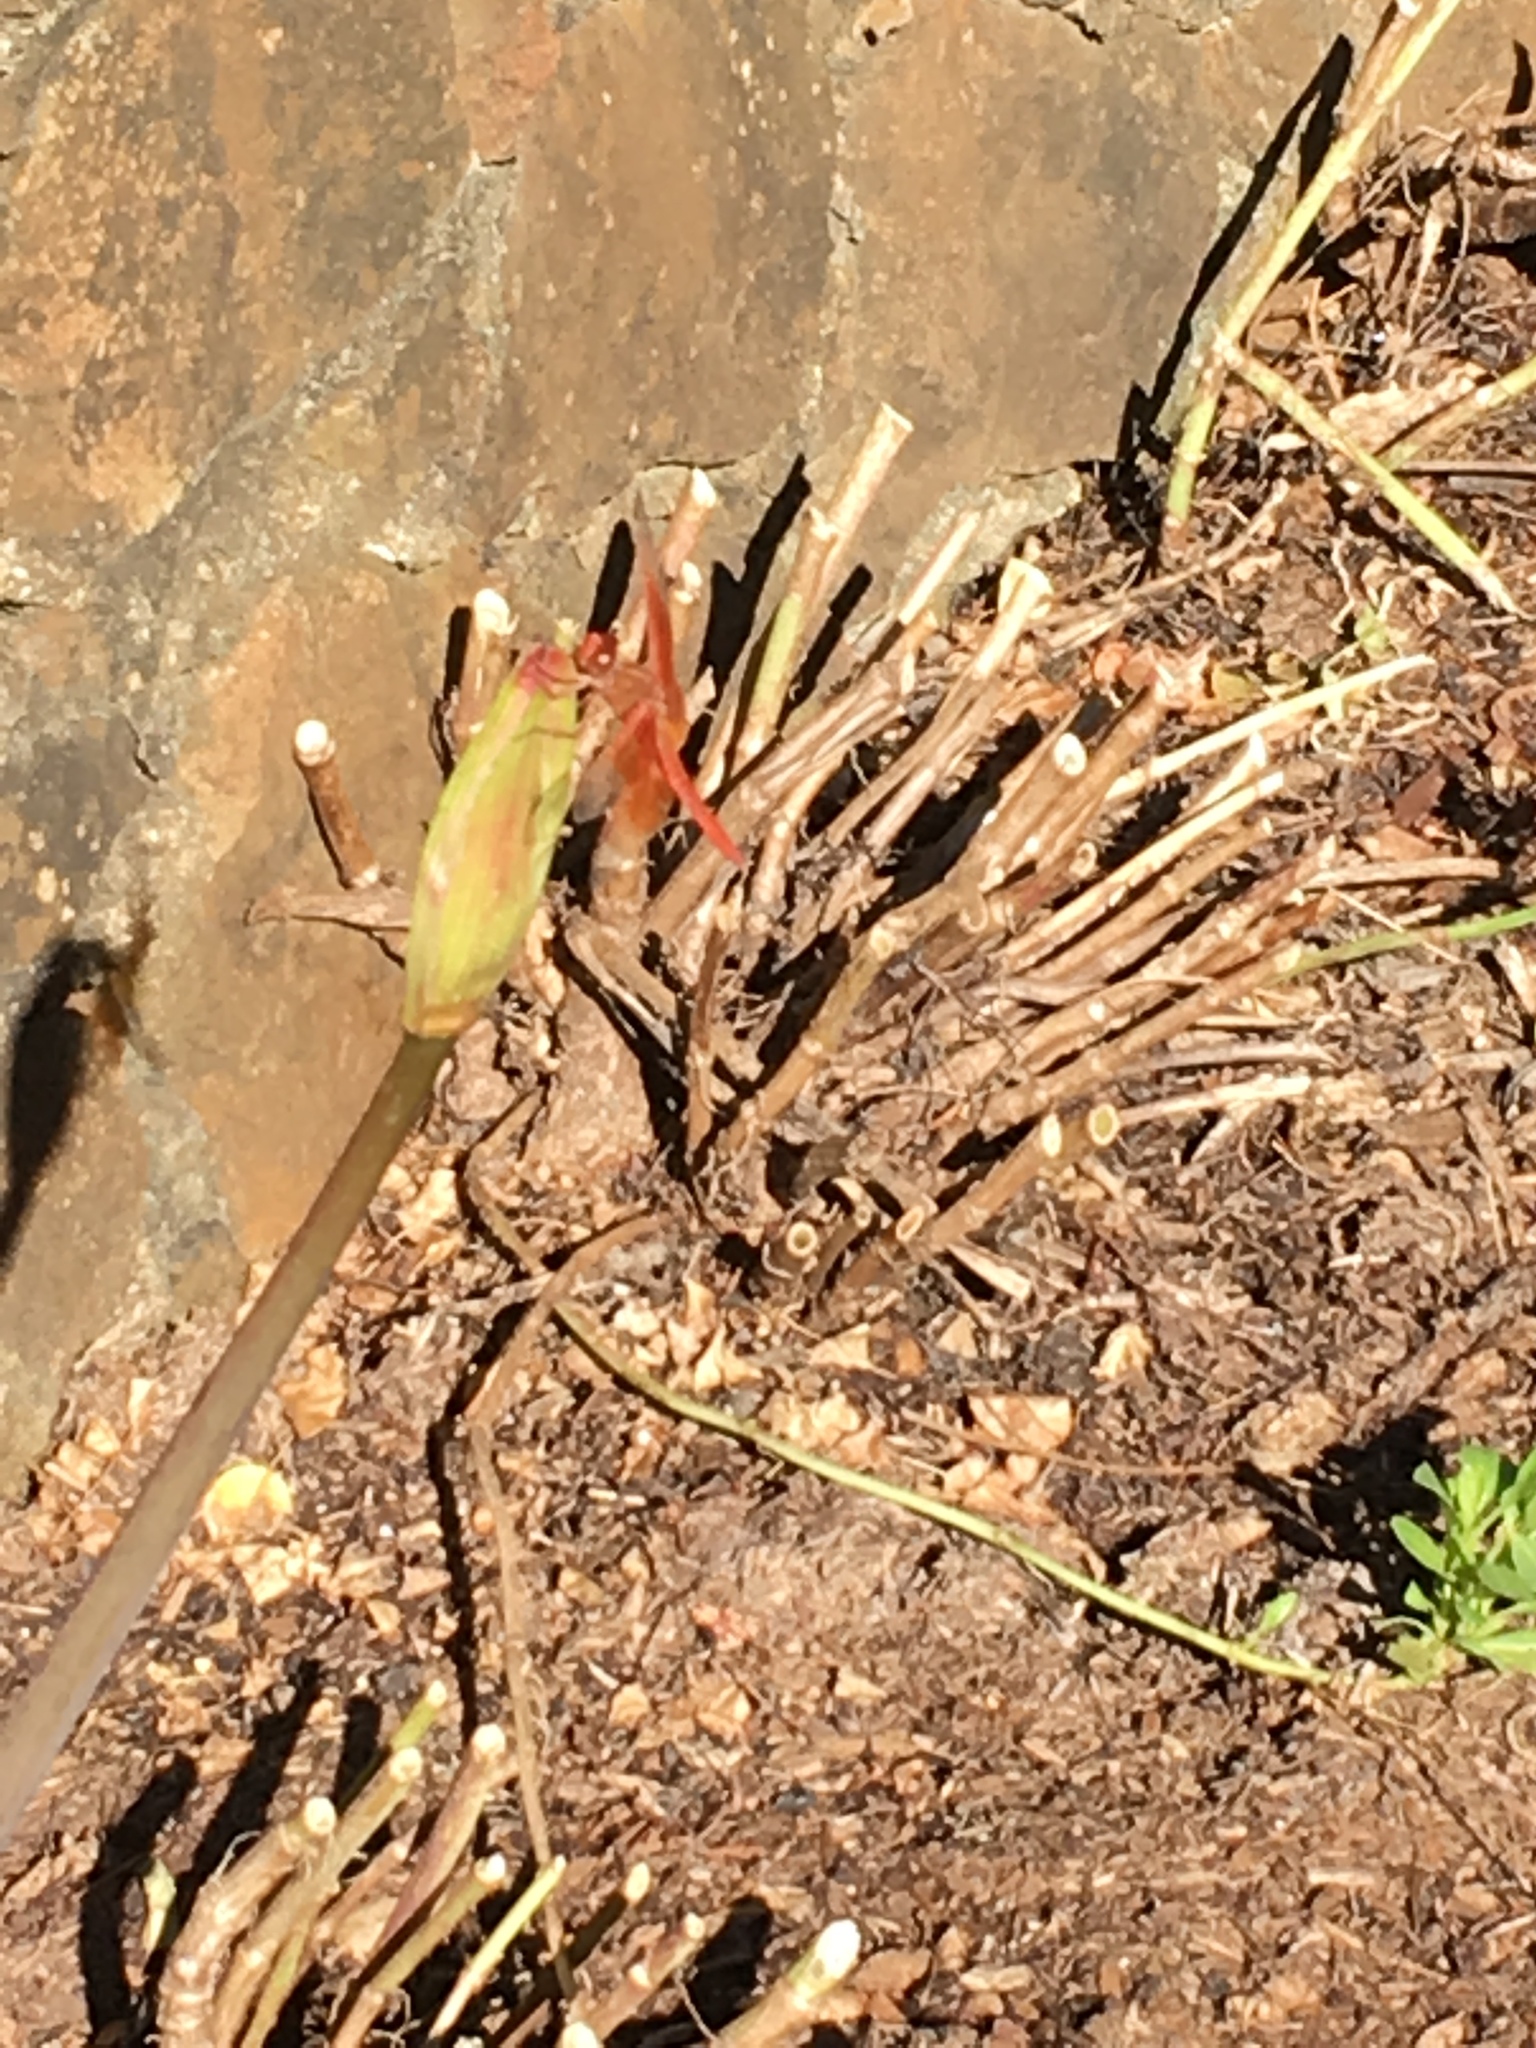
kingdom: Animalia
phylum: Arthropoda
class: Insecta
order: Odonata
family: Libellulidae
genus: Libellula
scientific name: Libellula saturata
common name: Flame skimmer
